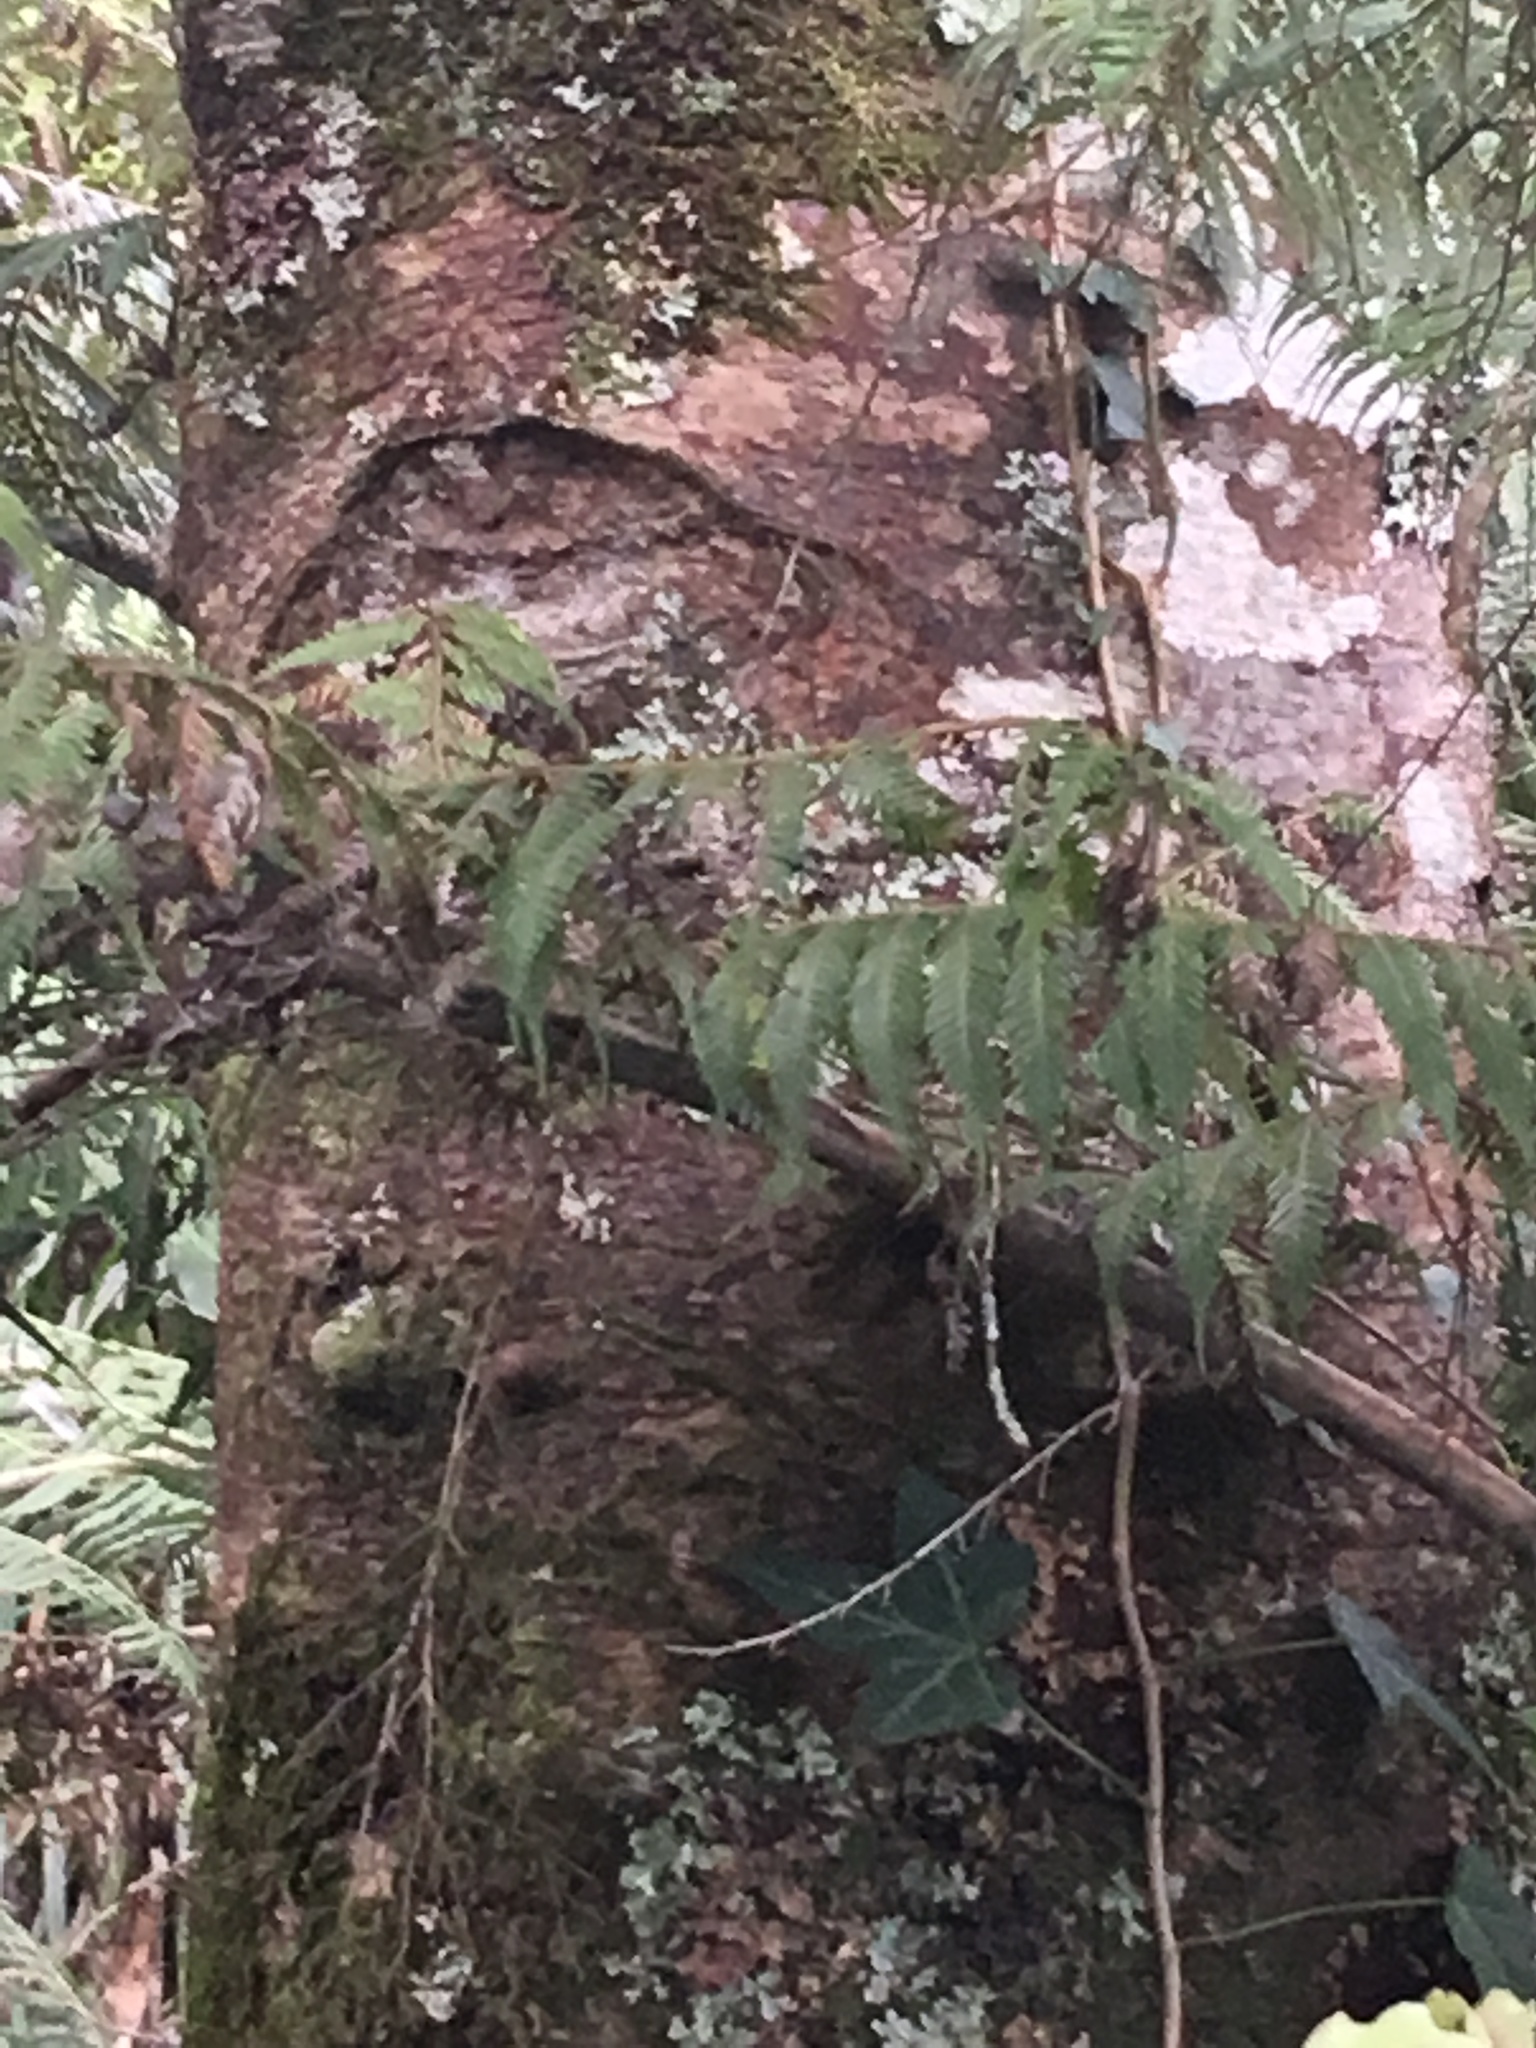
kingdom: Plantae
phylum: Tracheophyta
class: Magnoliopsida
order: Apiales
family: Araliaceae
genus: Hedera
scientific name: Hedera helix
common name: Ivy
